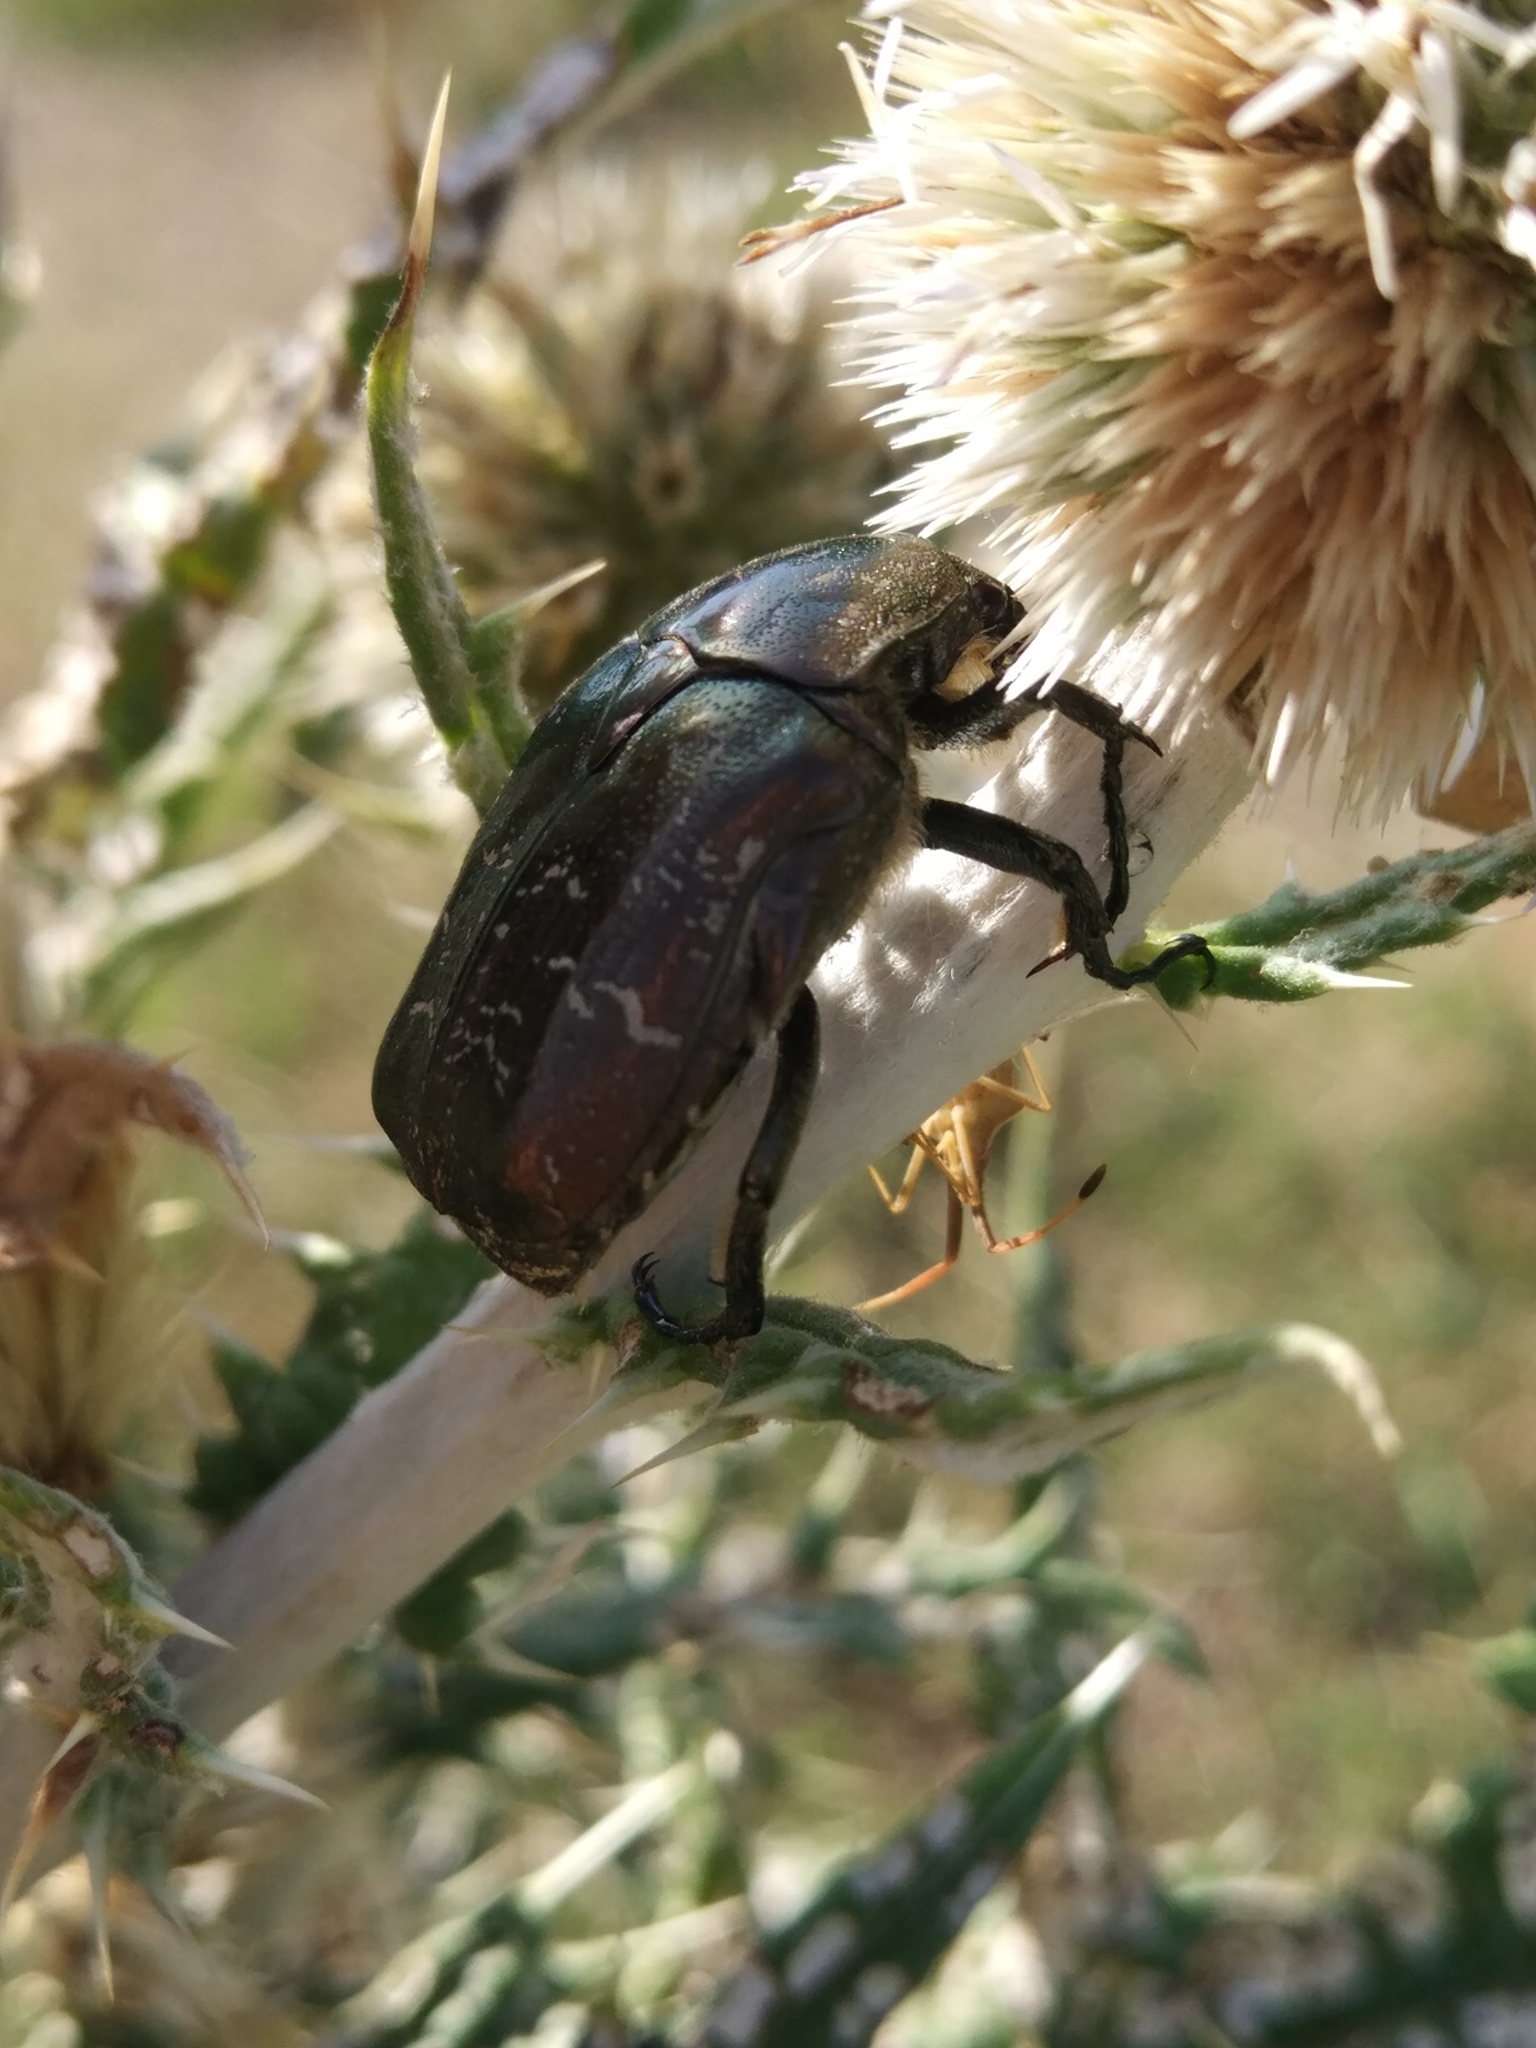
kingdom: Animalia
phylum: Arthropoda
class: Insecta
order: Coleoptera
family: Scarabaeidae
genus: Protaetia
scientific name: Protaetia cuprea
